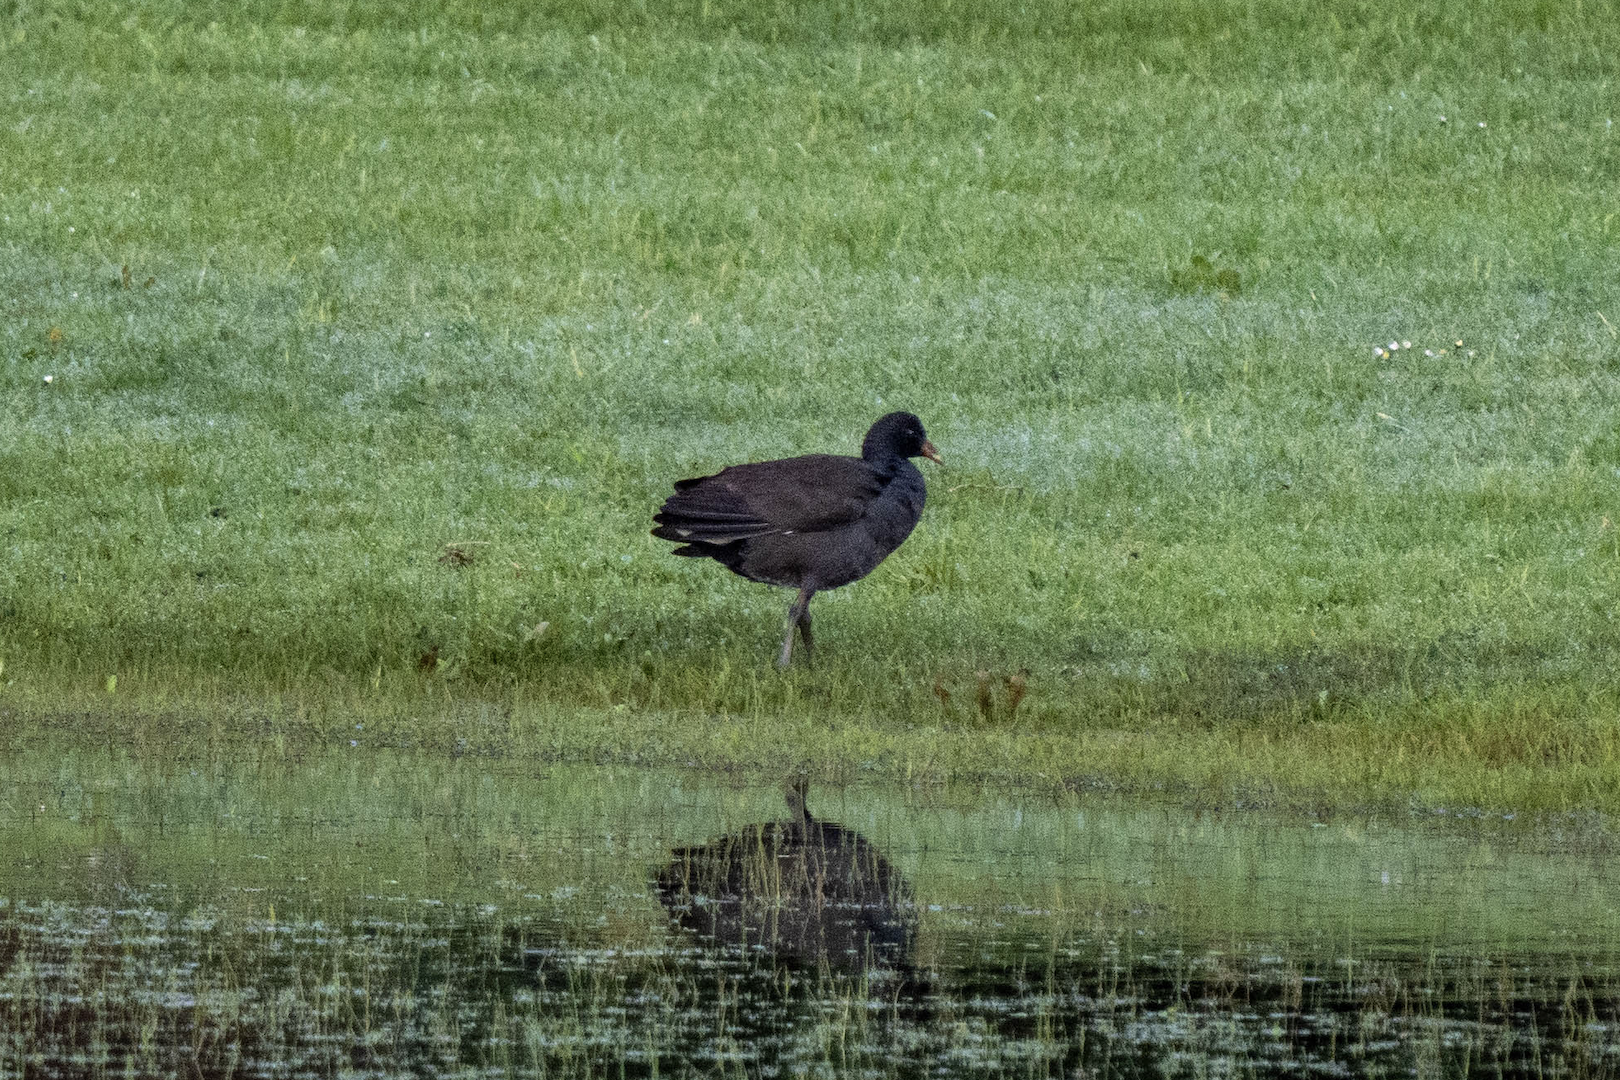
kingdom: Animalia
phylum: Chordata
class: Aves
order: Gruiformes
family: Rallidae
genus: Gallinula
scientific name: Gallinula tenebrosa
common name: Dusky moorhen
